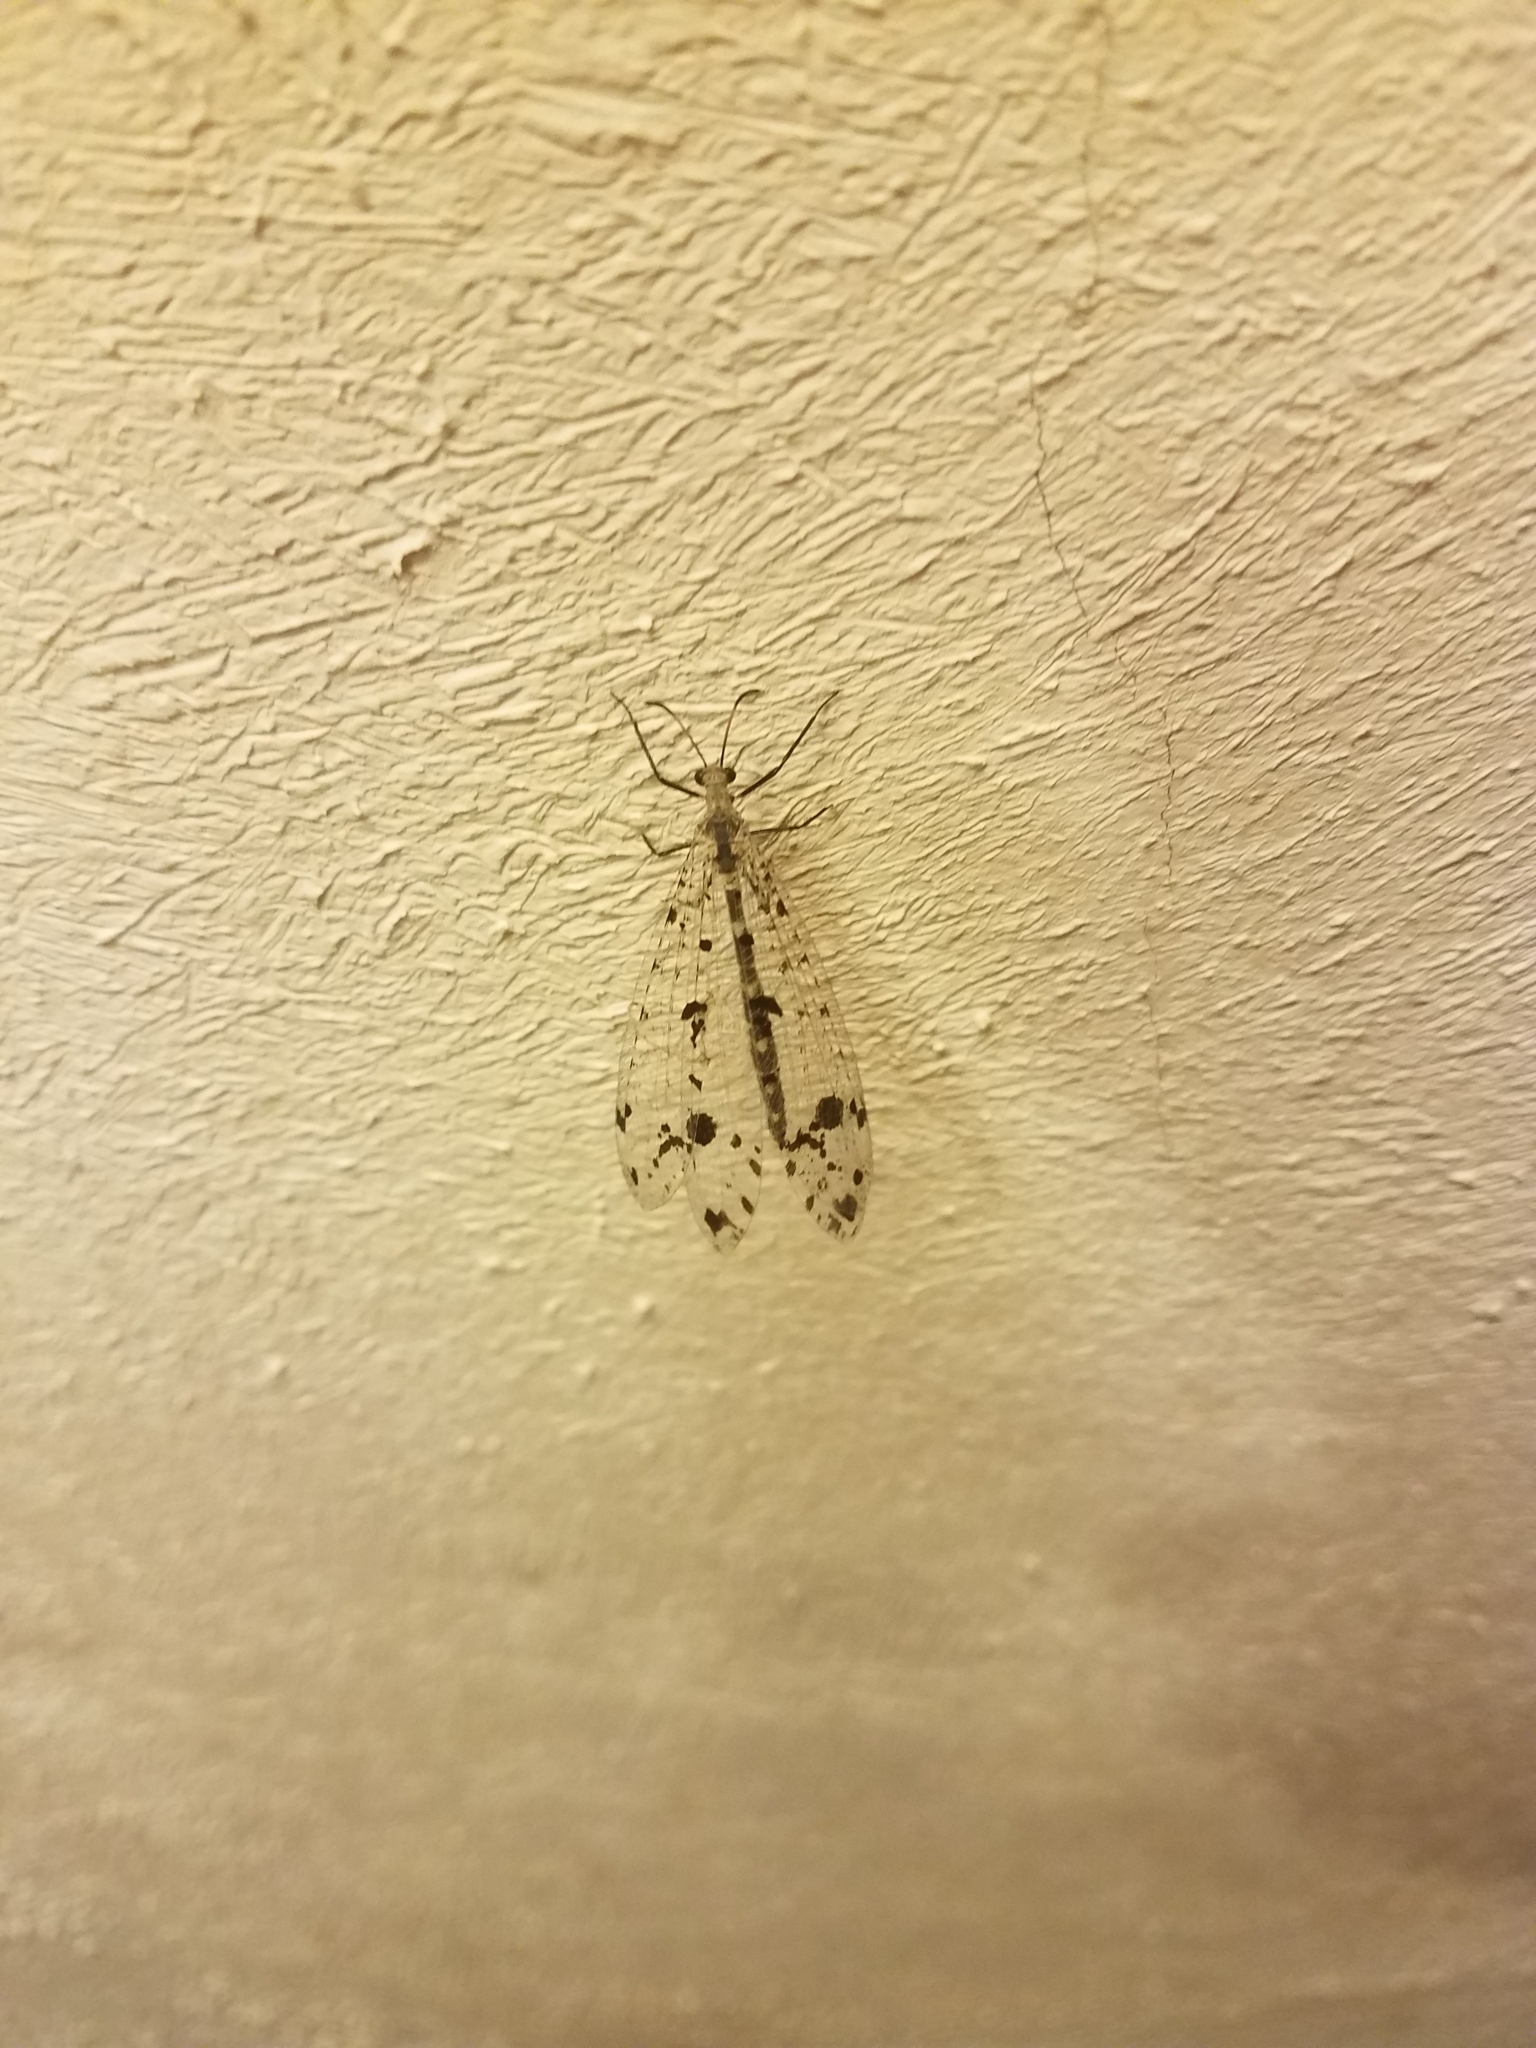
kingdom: Animalia
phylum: Arthropoda
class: Insecta
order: Neuroptera
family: Myrmeleontidae
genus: Dendroleon
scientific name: Dendroleon obsoletus
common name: Eastern spotted-winged antlion
